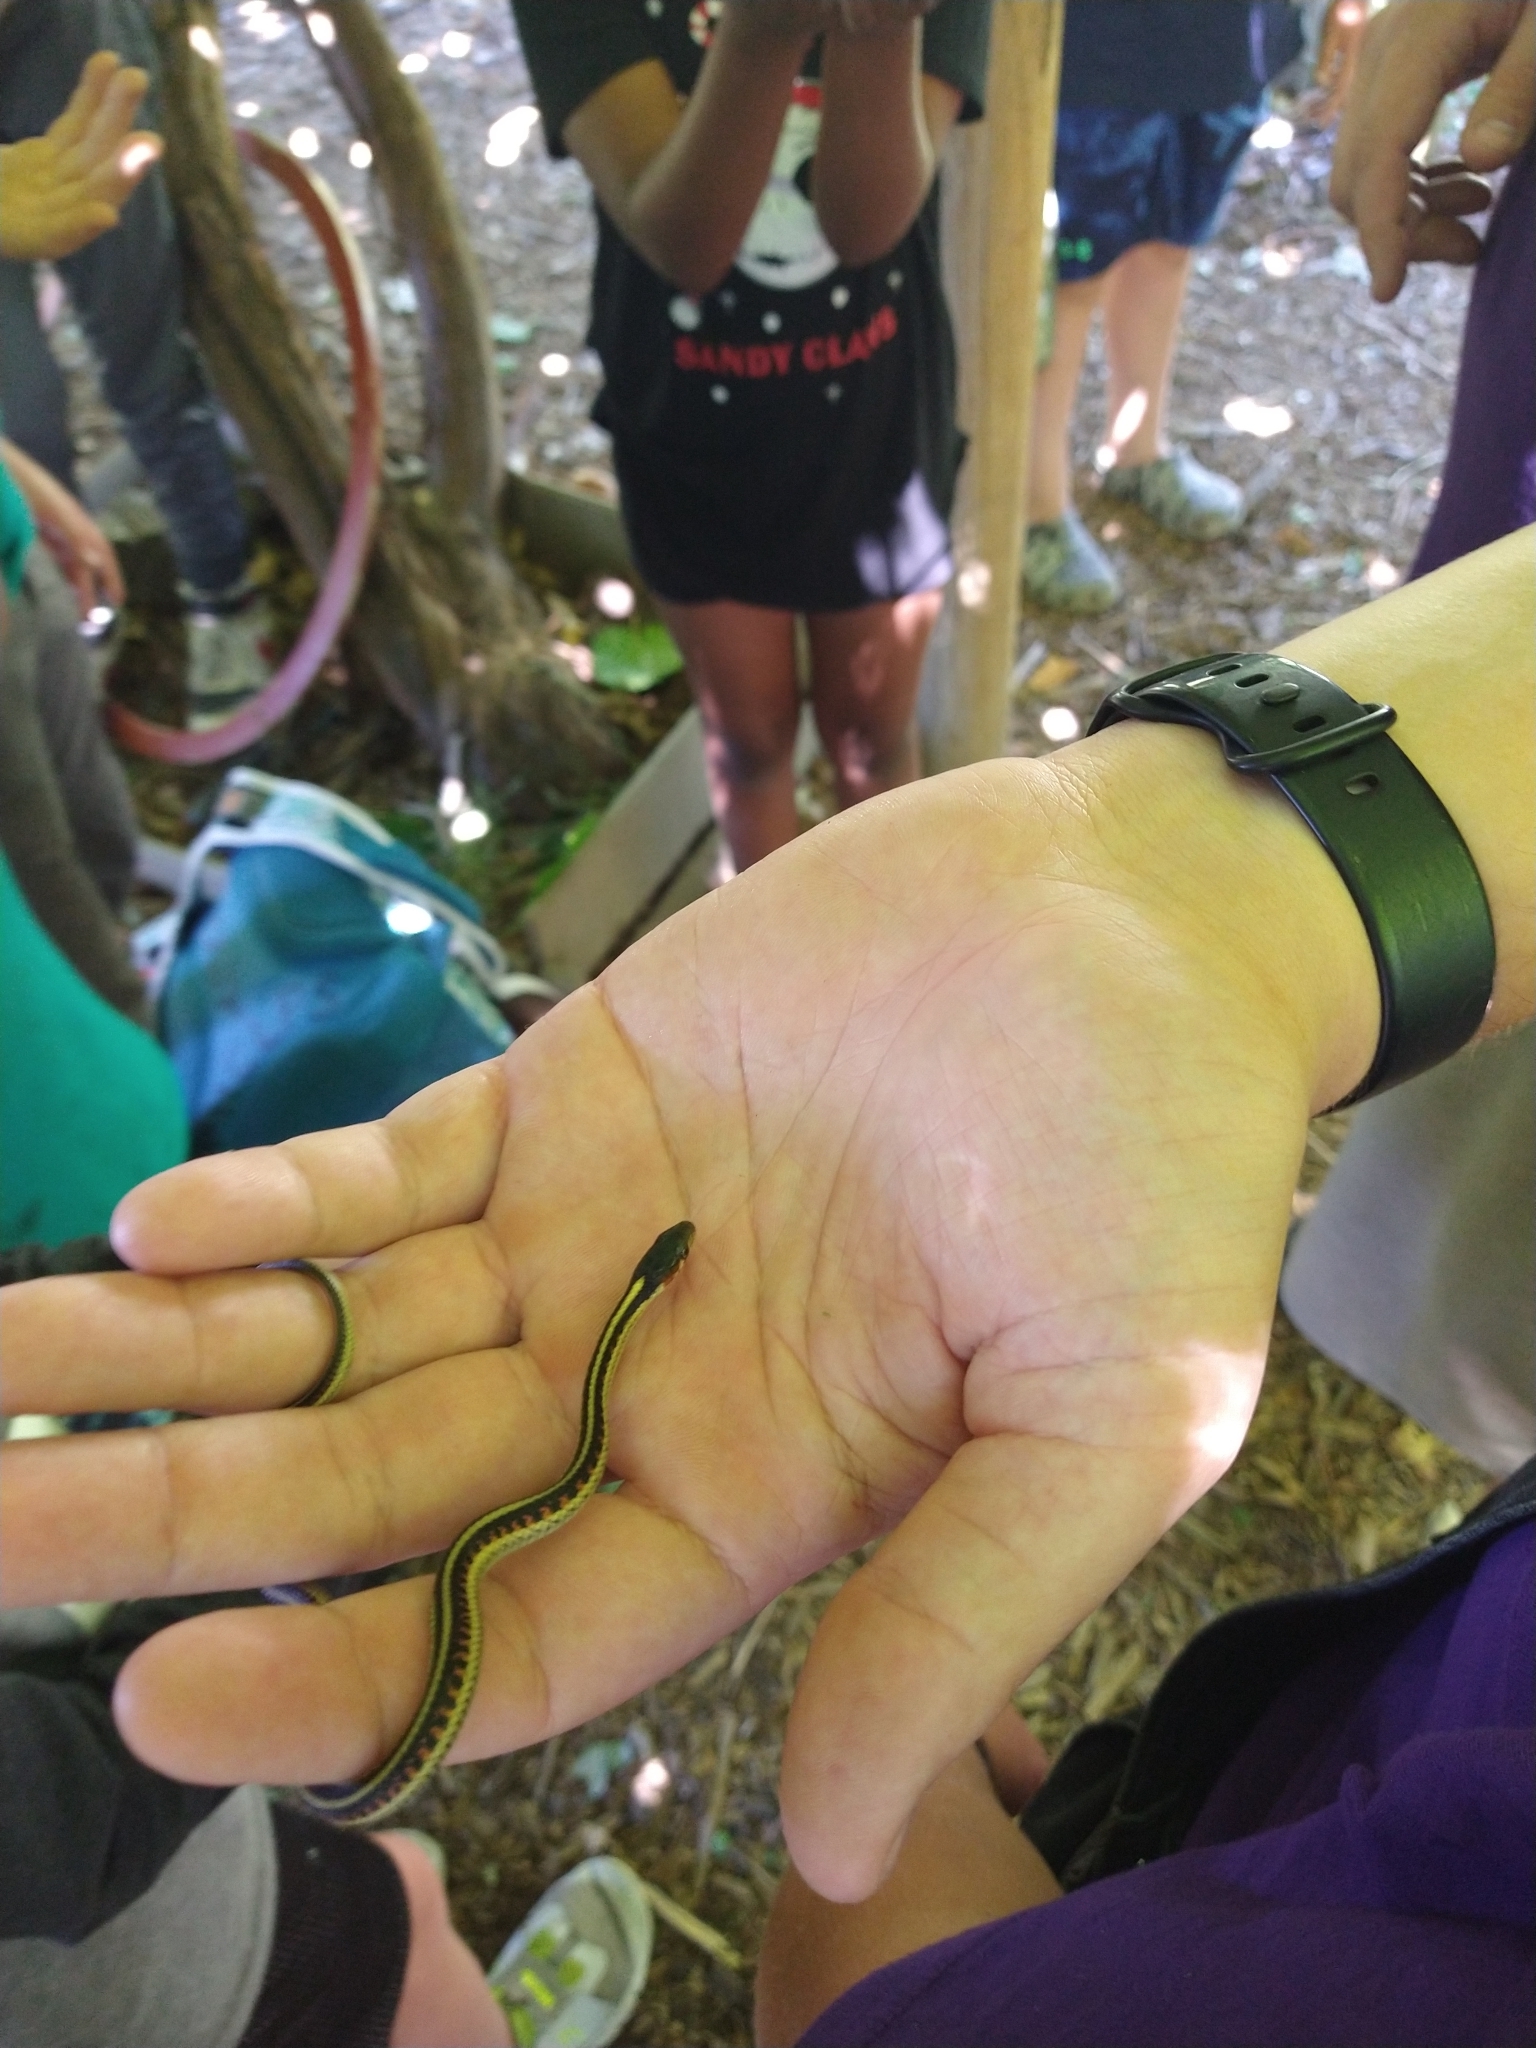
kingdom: Animalia
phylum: Chordata
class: Squamata
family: Colubridae
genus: Thamnophis
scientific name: Thamnophis sirtalis
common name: Common garter snake
